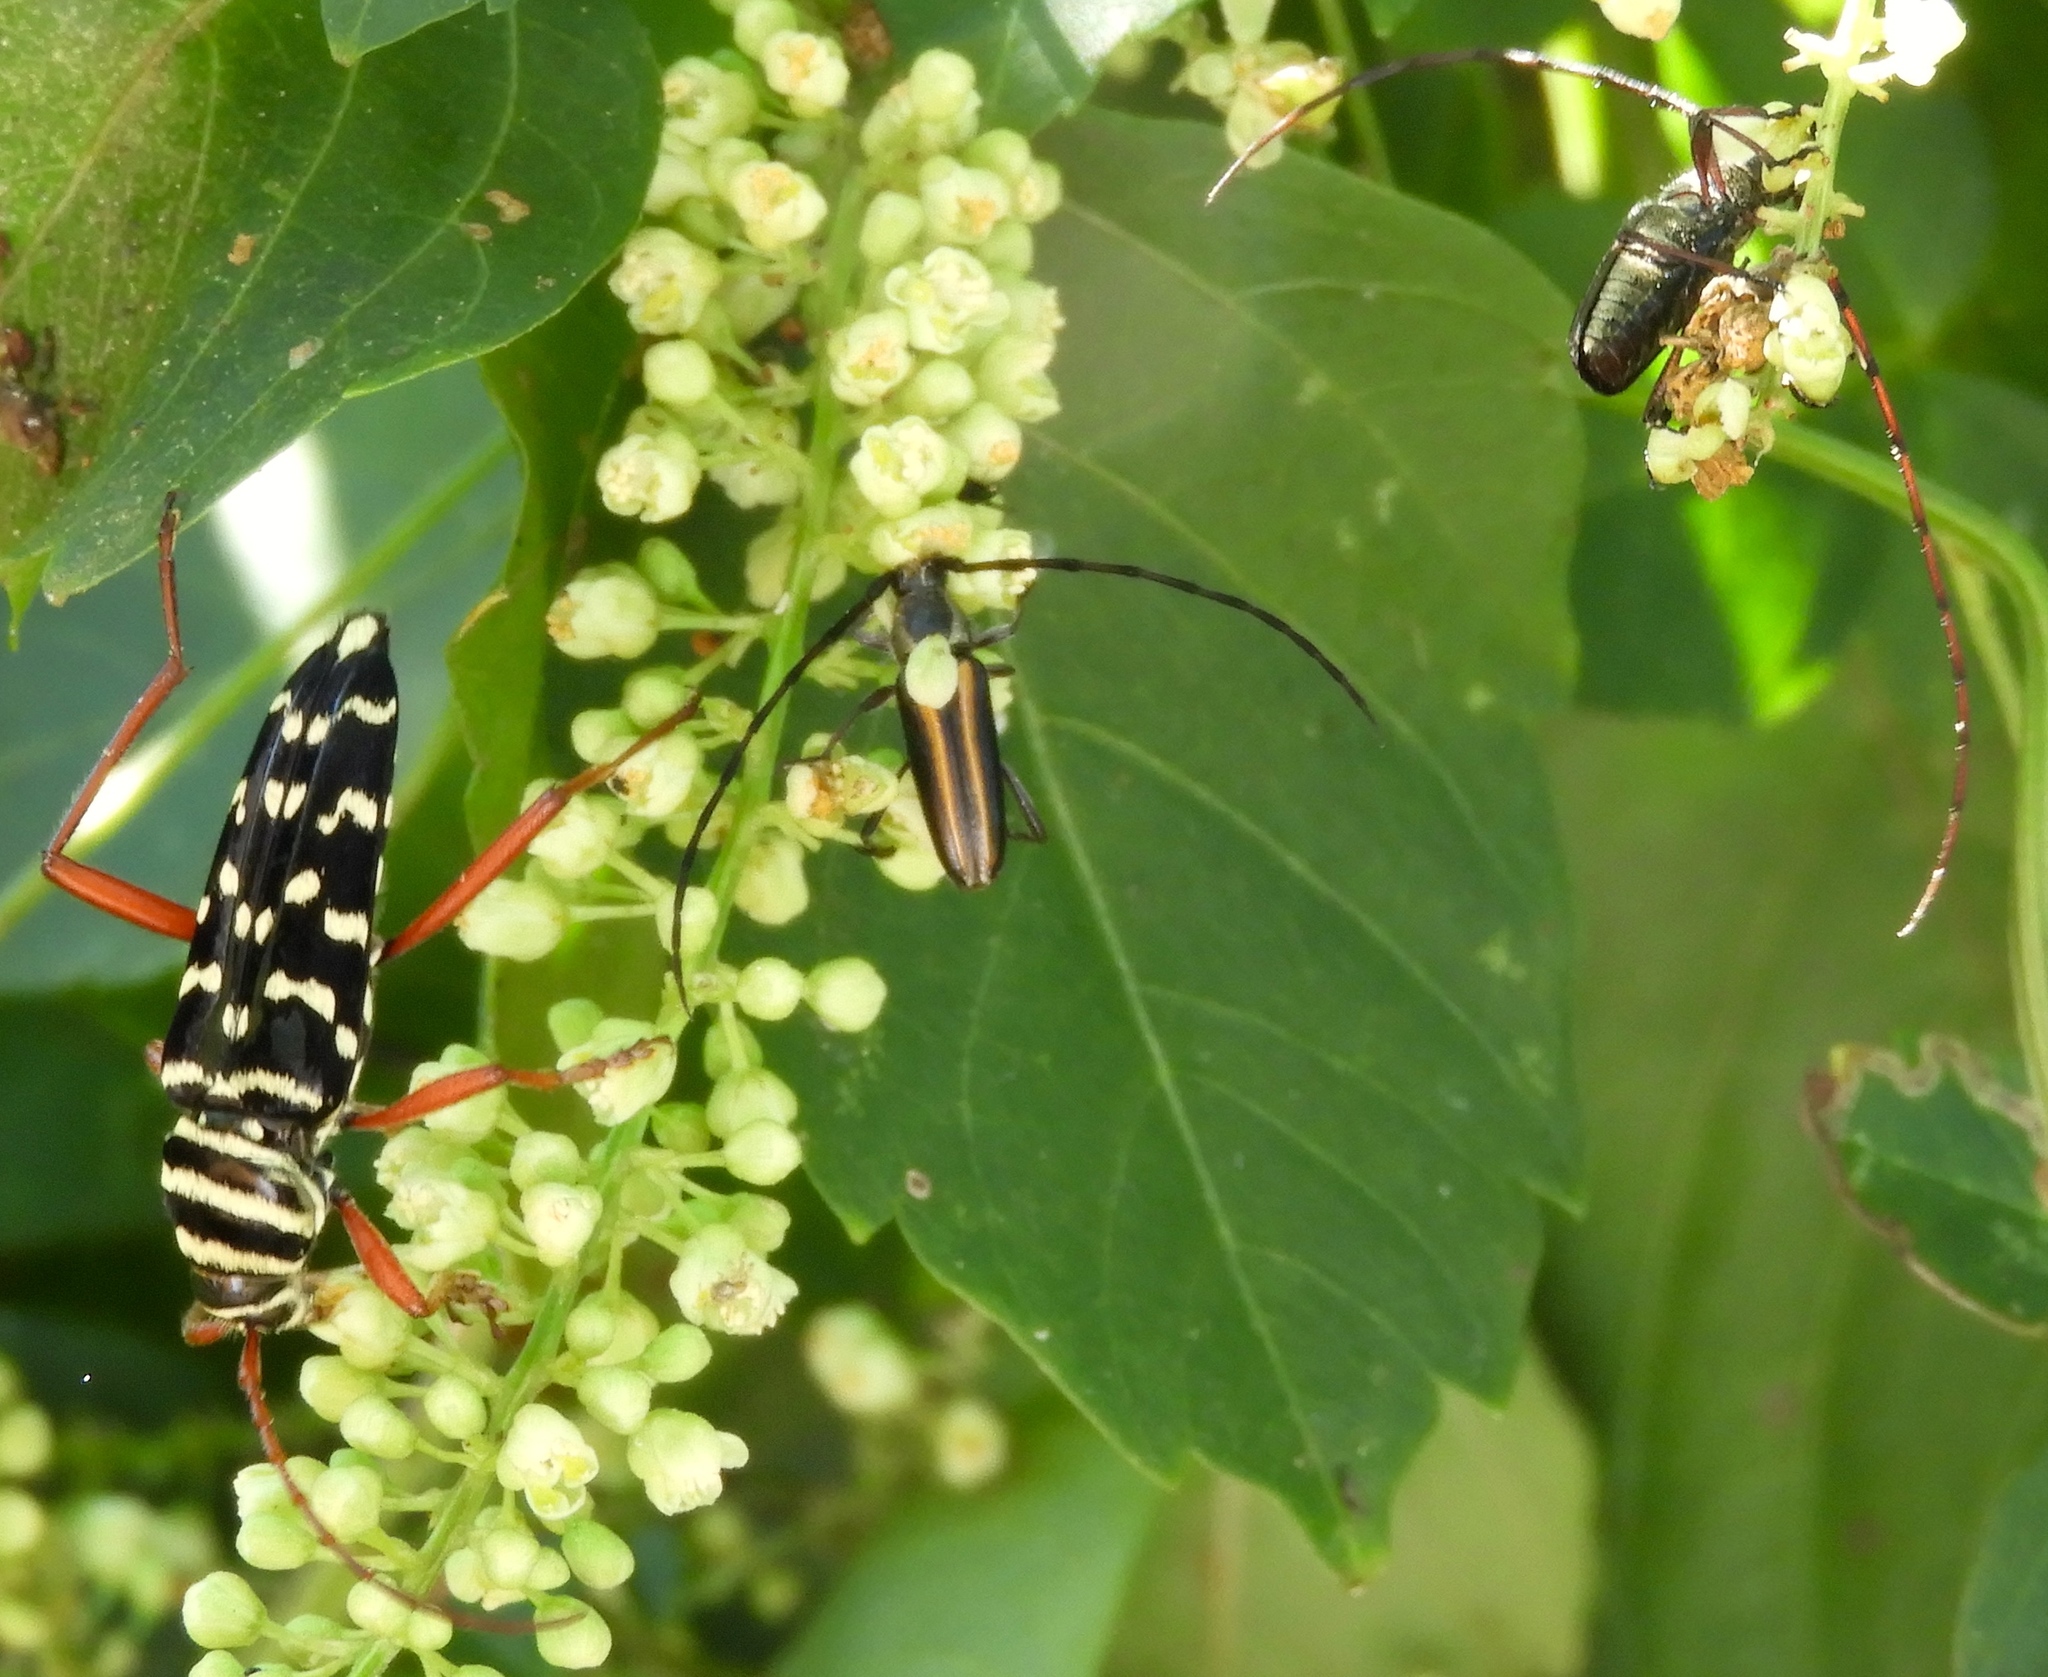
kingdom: Animalia
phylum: Arthropoda
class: Insecta
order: Coleoptera
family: Cerambycidae
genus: Sphaenothecus
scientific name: Sphaenothecus
